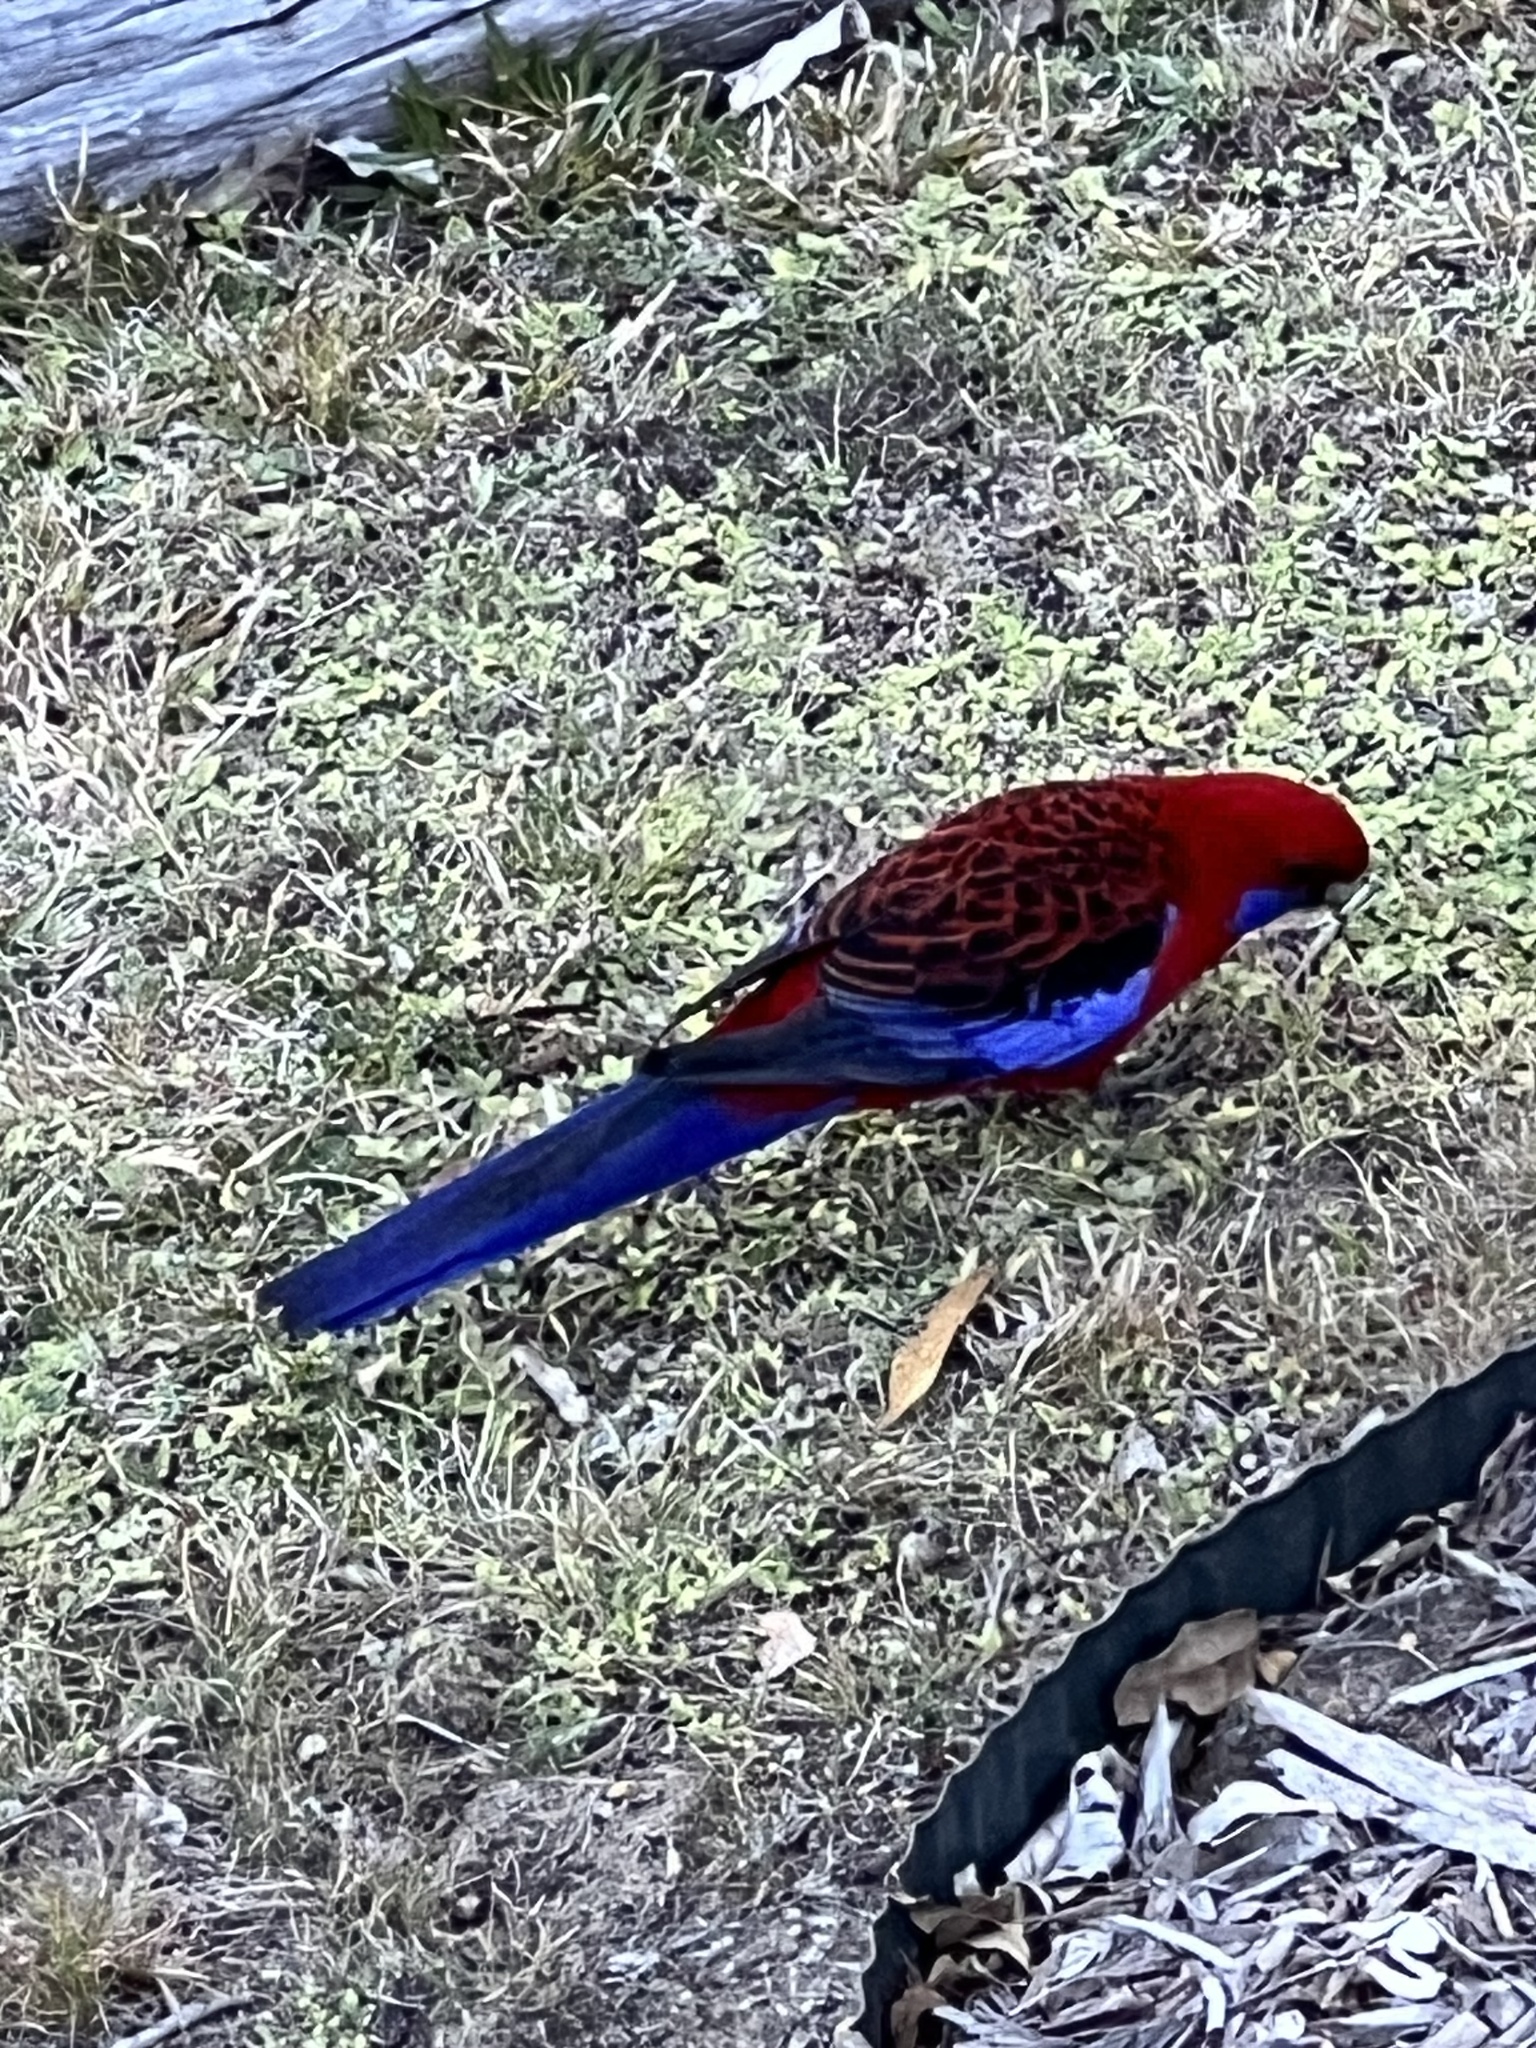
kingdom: Animalia
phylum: Chordata
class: Aves
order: Psittaciformes
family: Psittacidae
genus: Platycercus
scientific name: Platycercus elegans
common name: Crimson rosella
